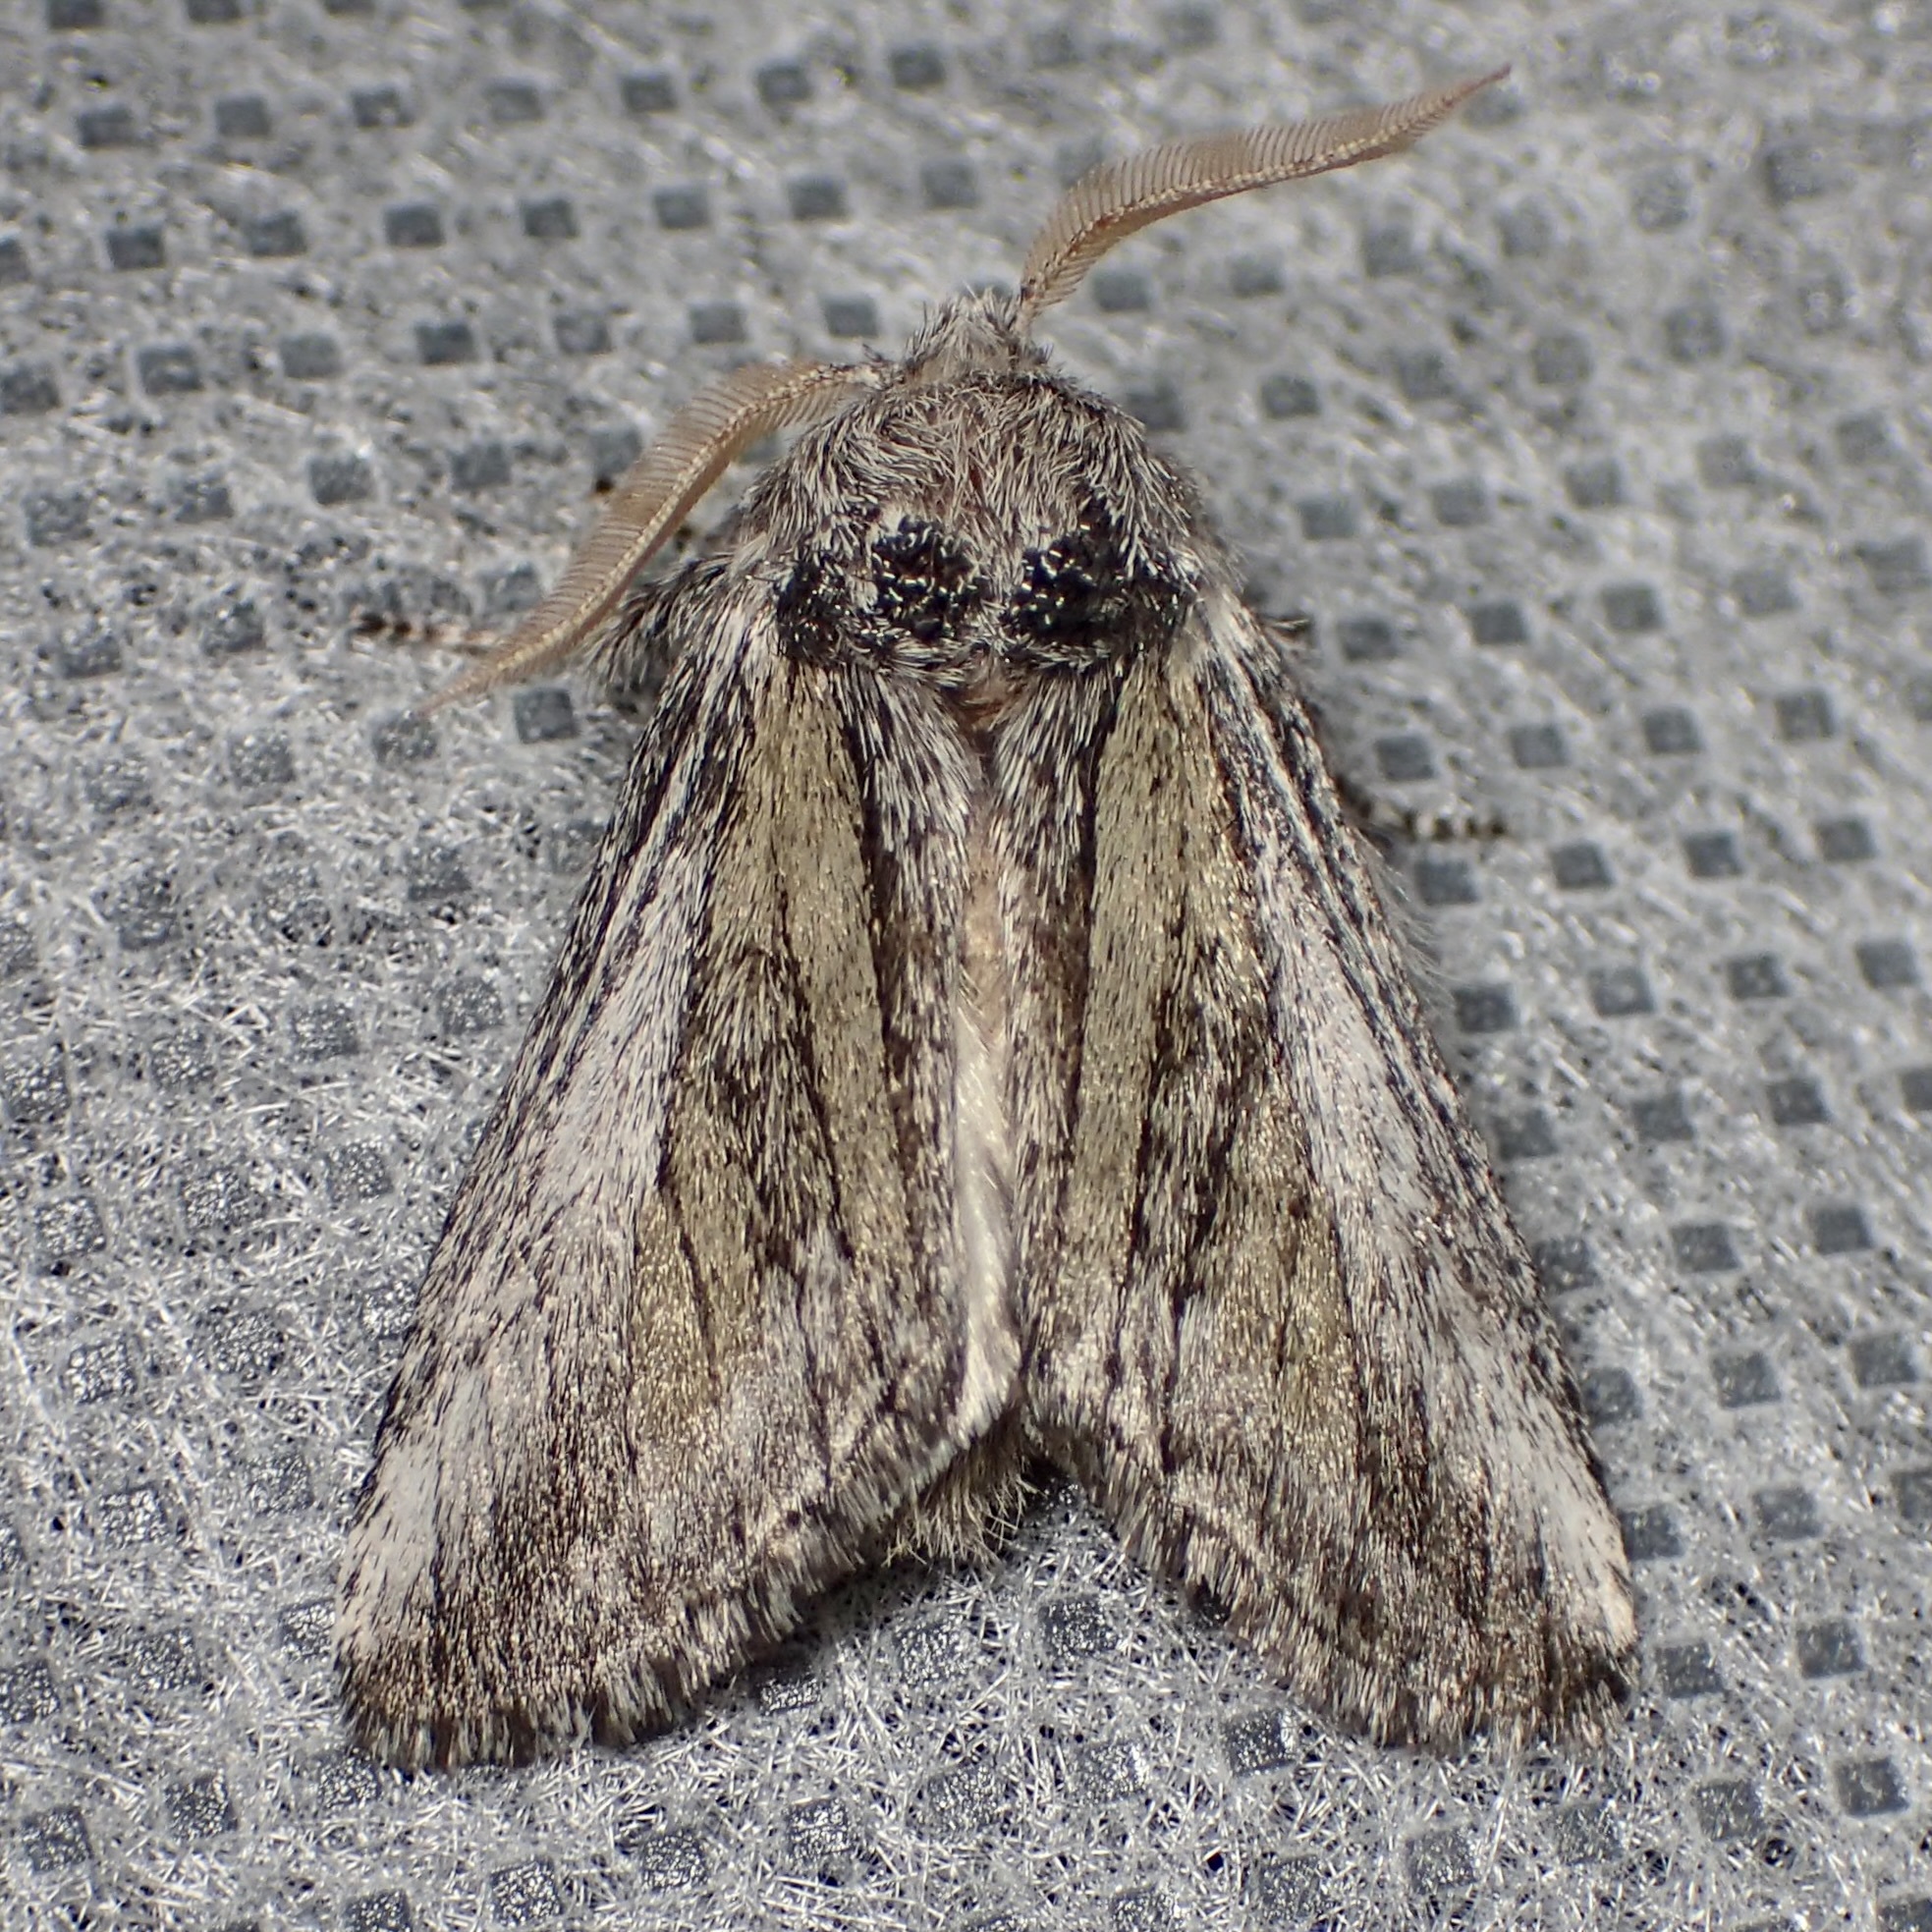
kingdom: Animalia
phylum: Arthropoda
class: Insecta
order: Lepidoptera
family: Notodontidae
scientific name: Notodontidae
